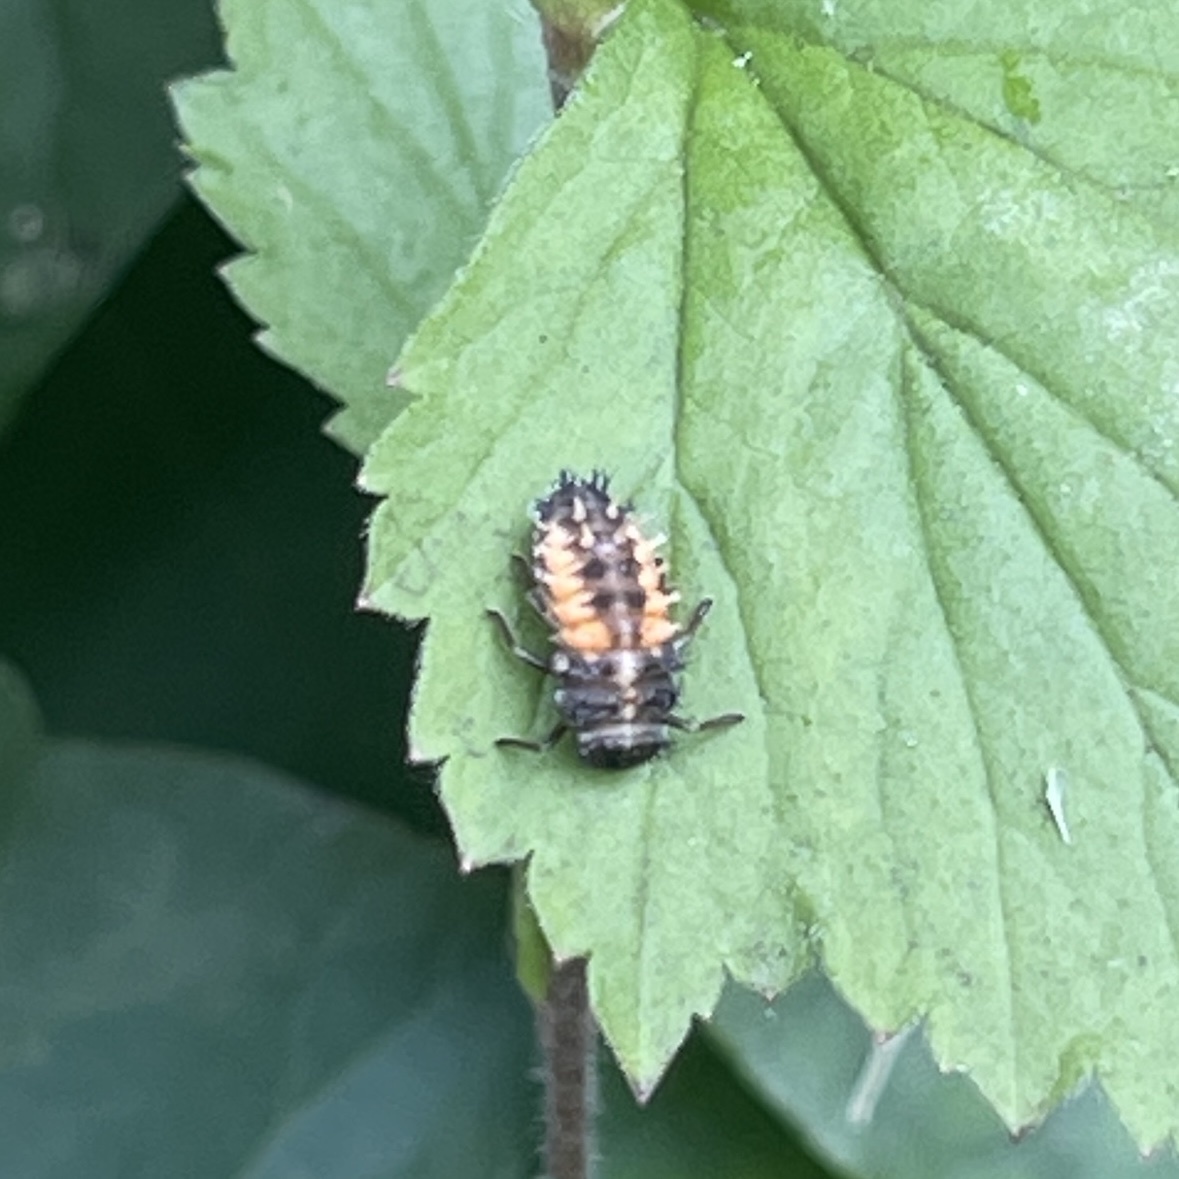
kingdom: Animalia
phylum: Arthropoda
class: Insecta
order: Coleoptera
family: Coccinellidae
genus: Harmonia
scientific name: Harmonia axyridis
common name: Harlequin ladybird
